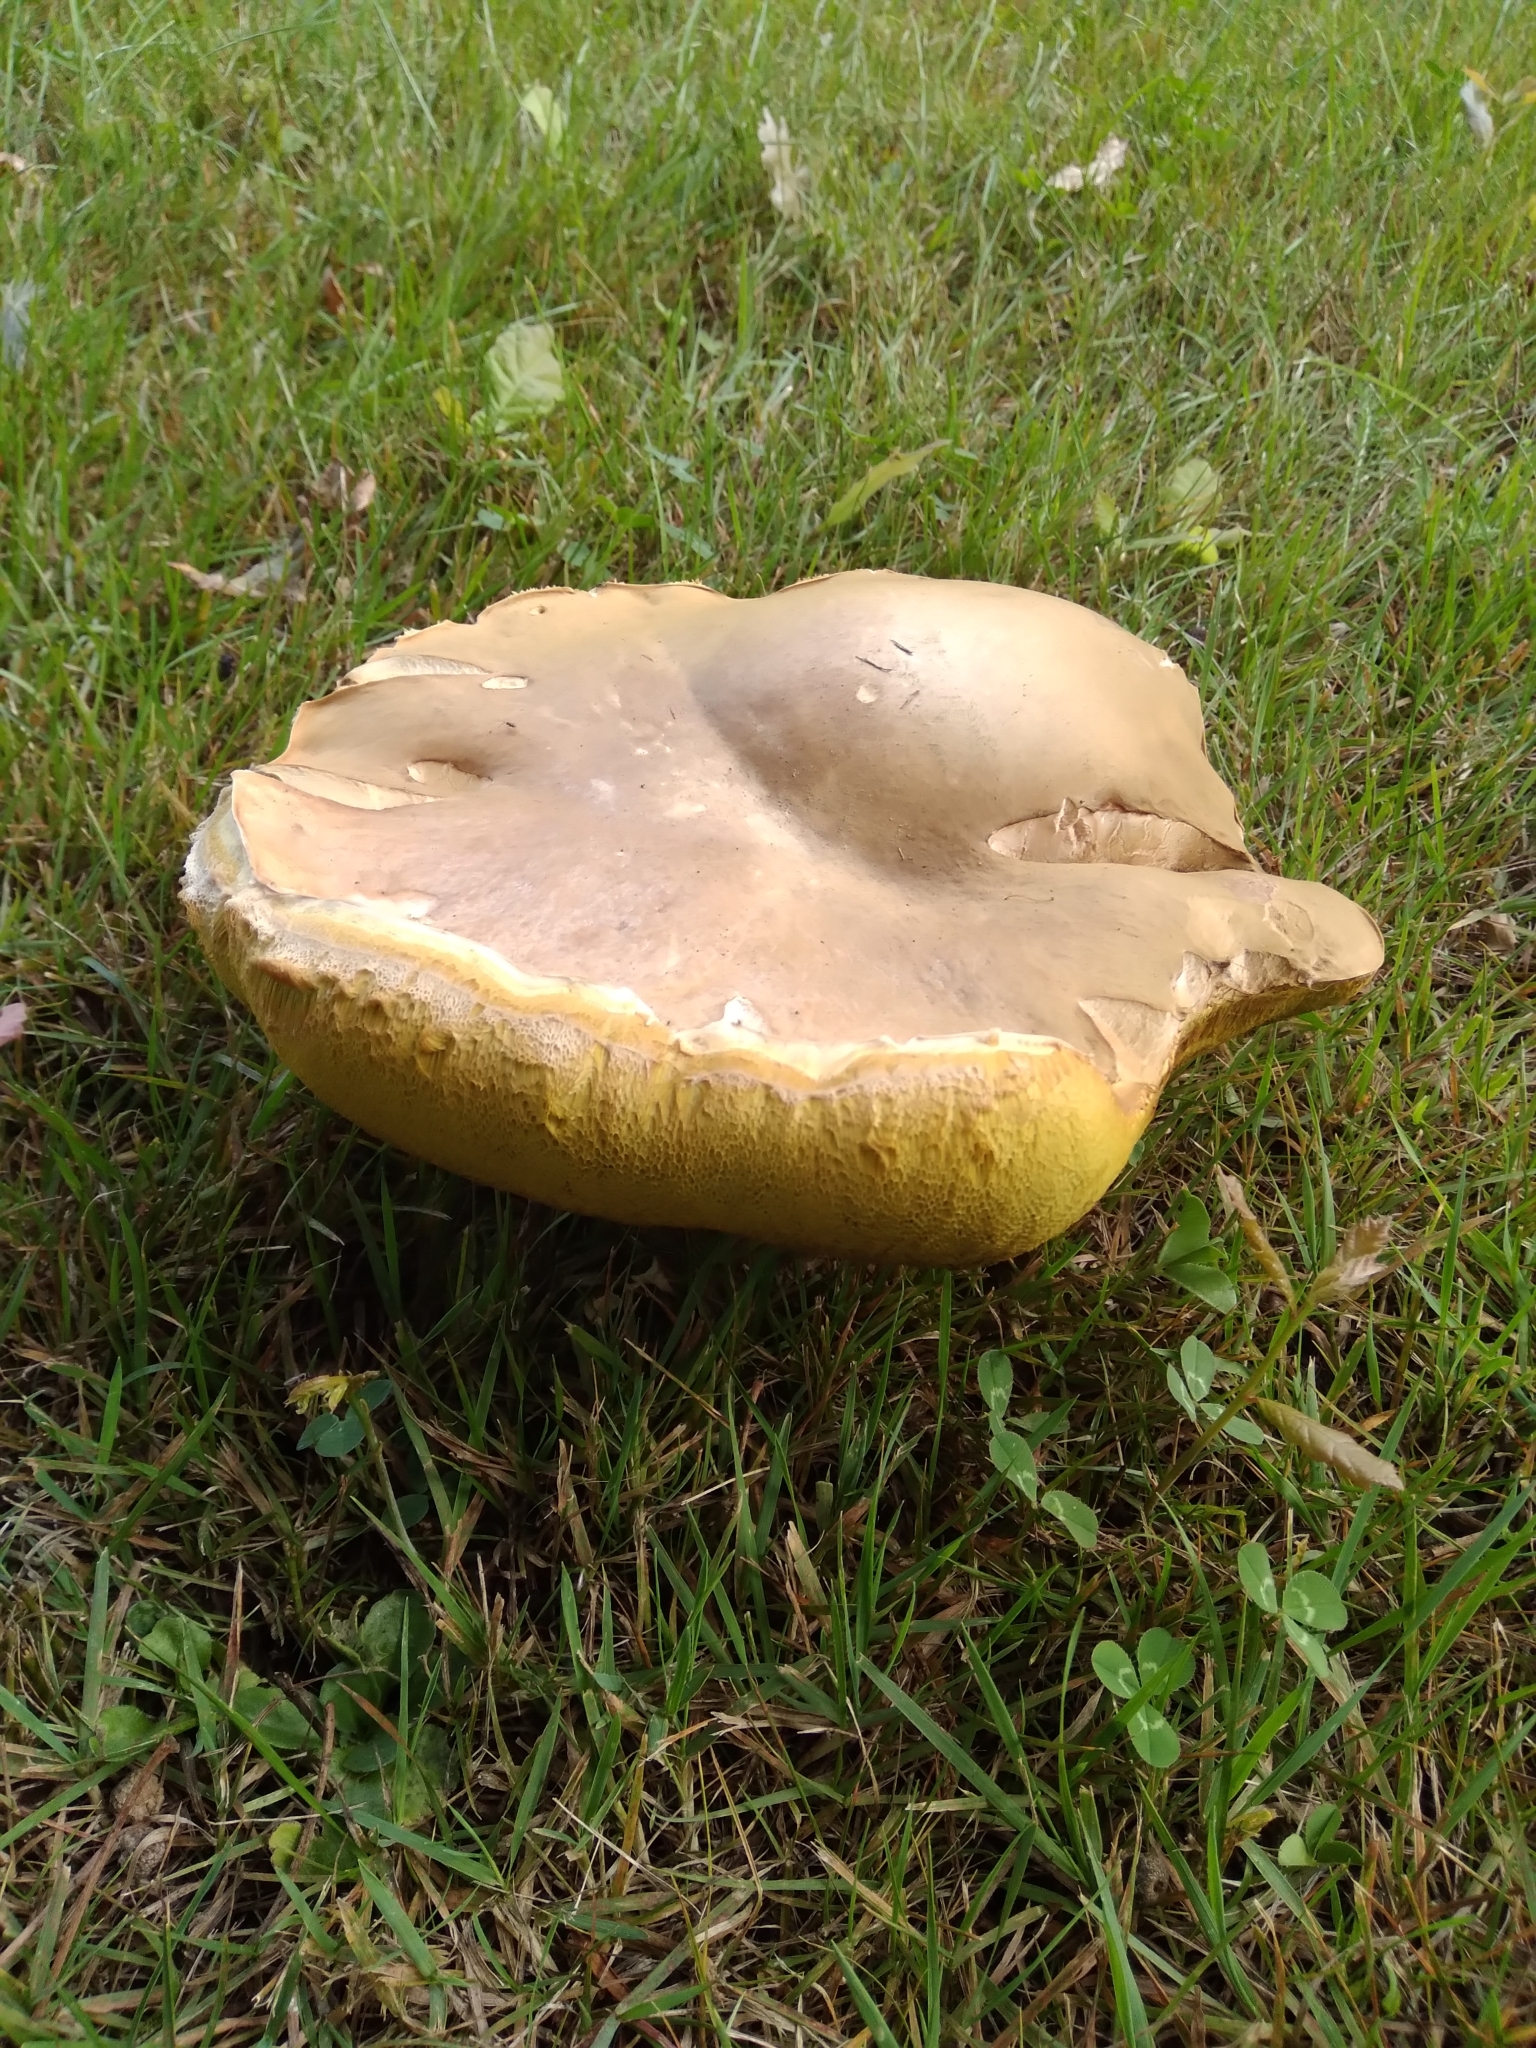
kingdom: Fungi
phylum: Basidiomycota
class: Agaricomycetes
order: Boletales
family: Boletaceae
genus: Boletus
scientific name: Boletus edulis
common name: Cep
